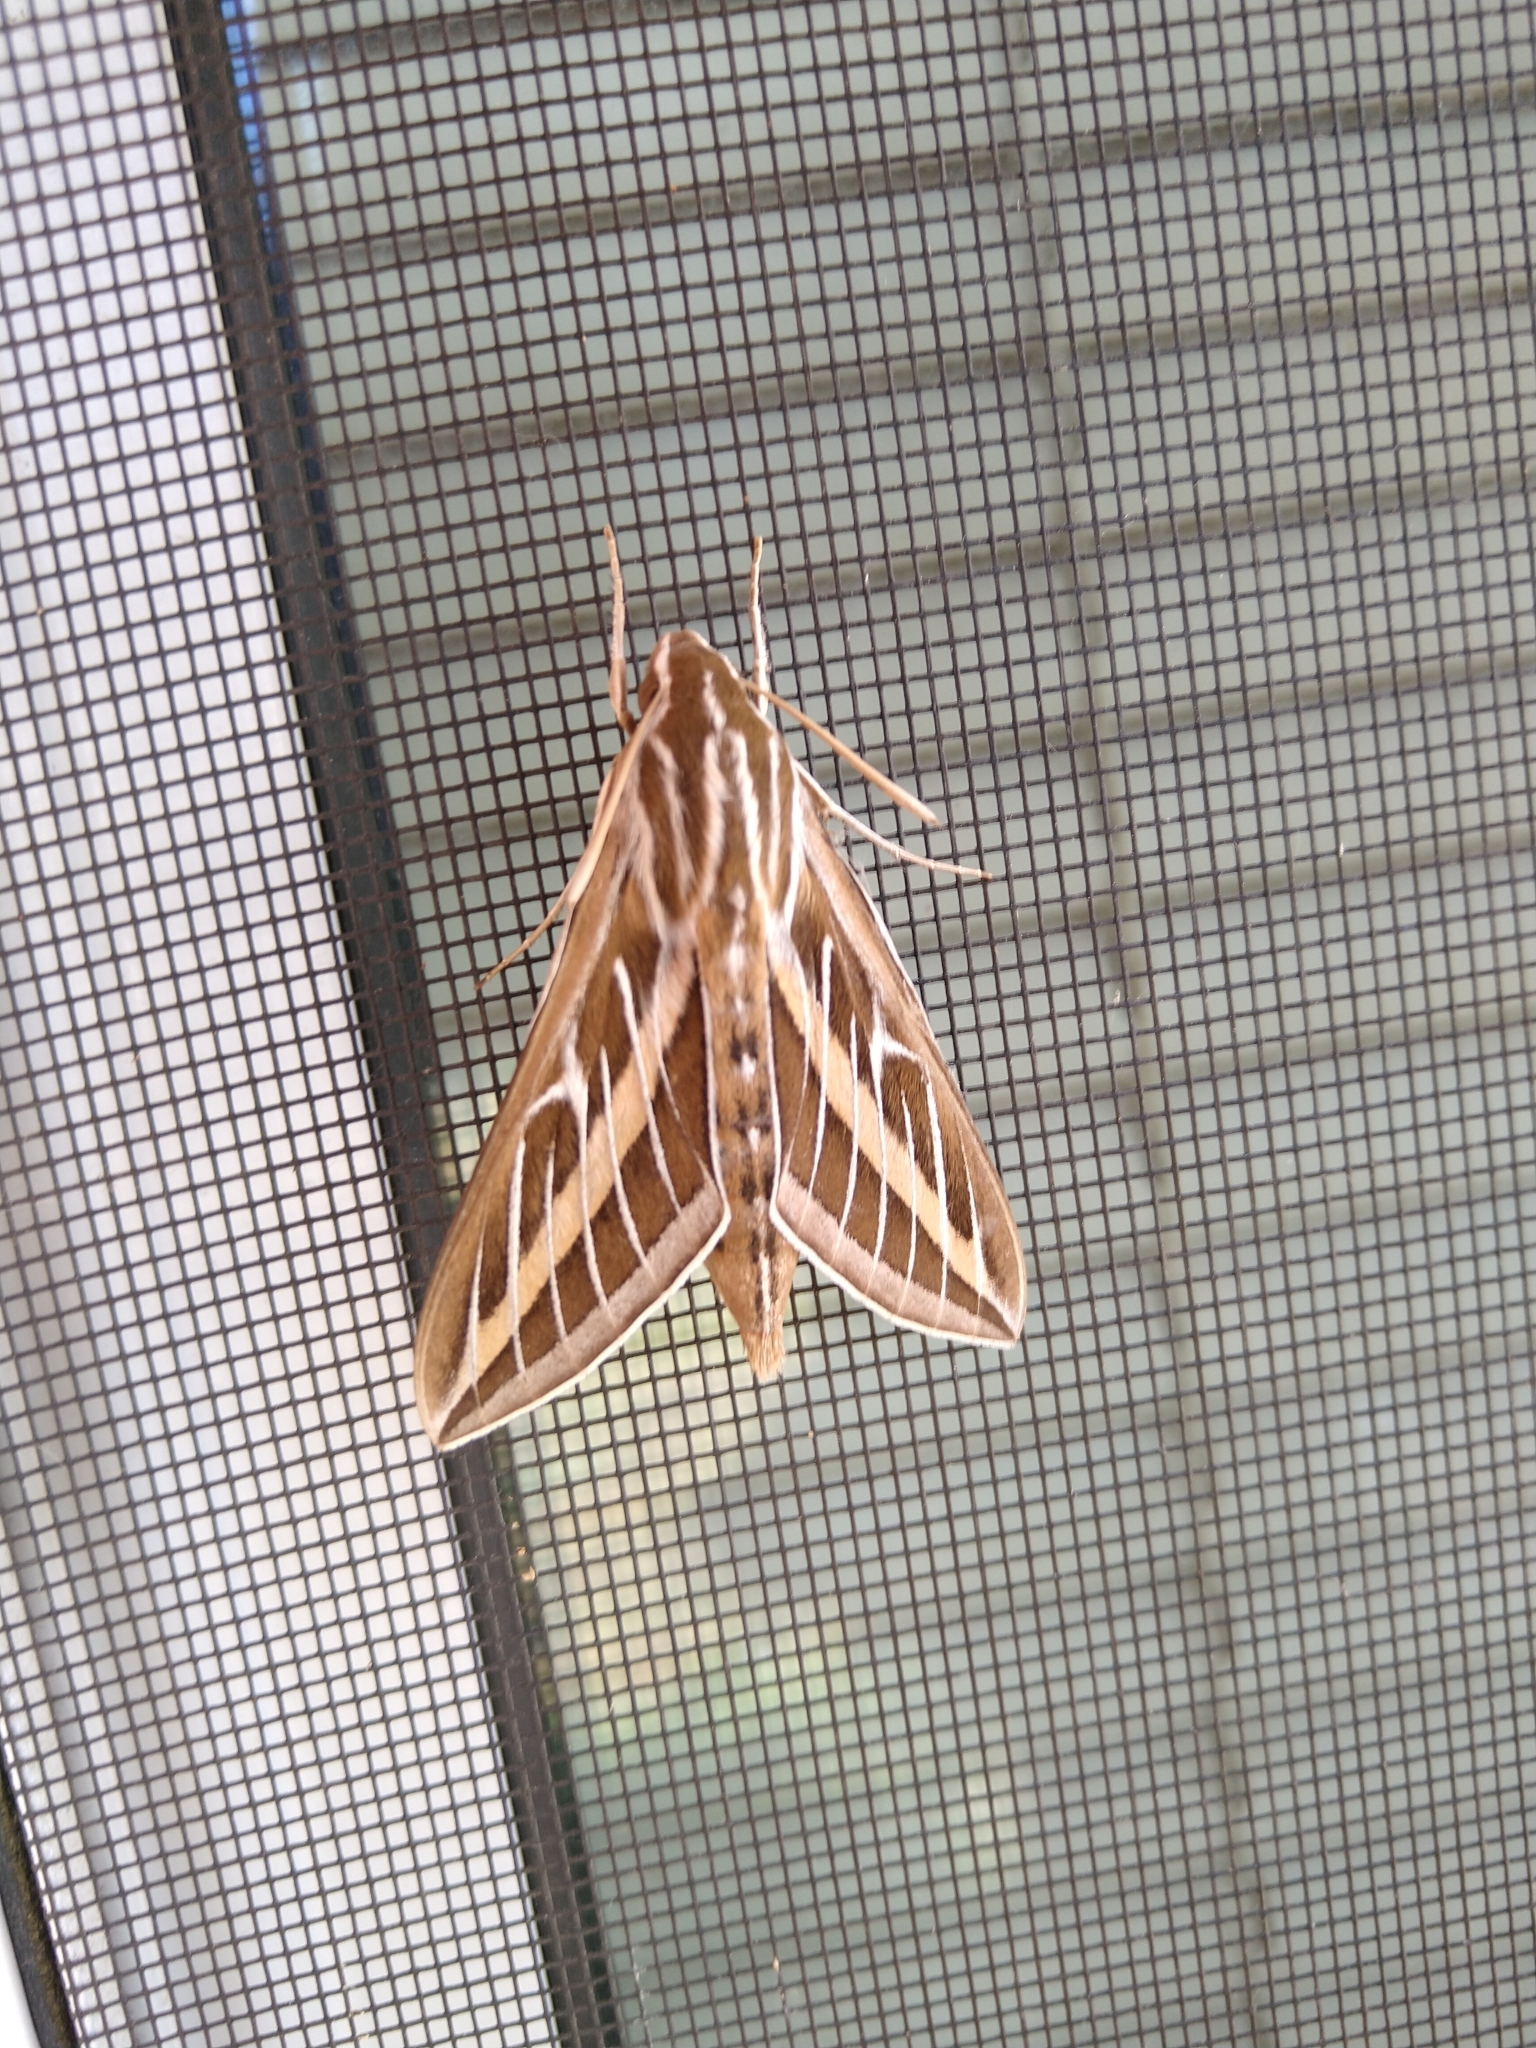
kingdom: Animalia
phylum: Arthropoda
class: Insecta
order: Lepidoptera
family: Sphingidae
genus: Hyles
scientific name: Hyles lineata
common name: White-lined sphinx
